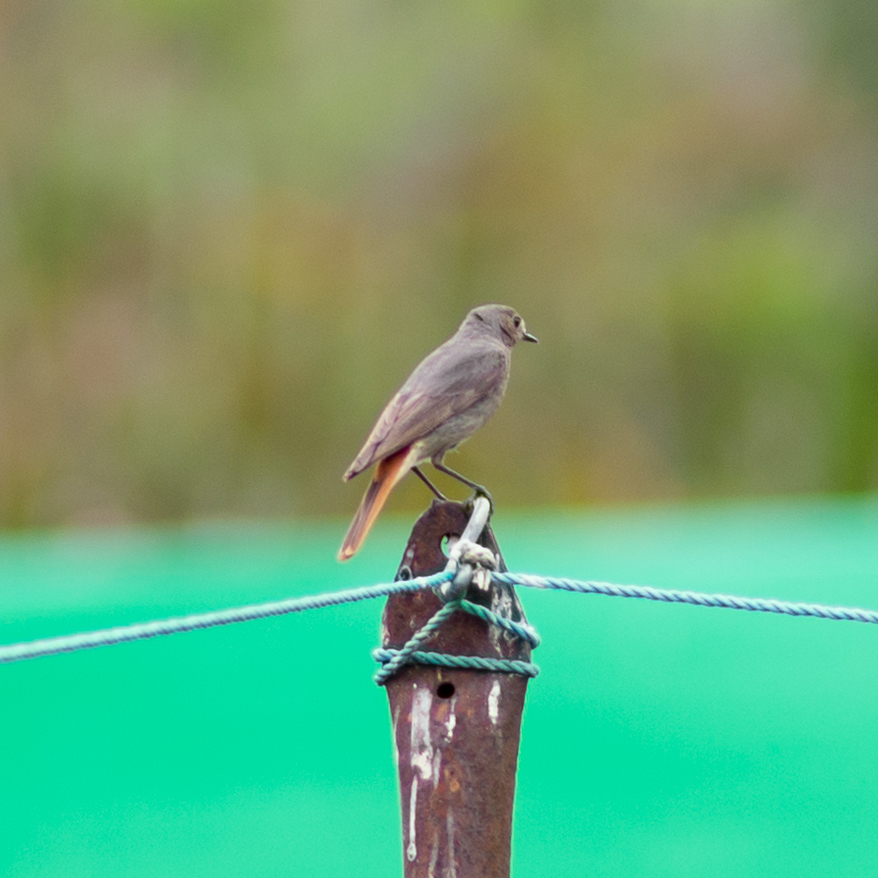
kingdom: Animalia
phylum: Chordata
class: Aves
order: Passeriformes
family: Muscicapidae
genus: Phoenicurus
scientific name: Phoenicurus ochruros
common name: Black redstart
